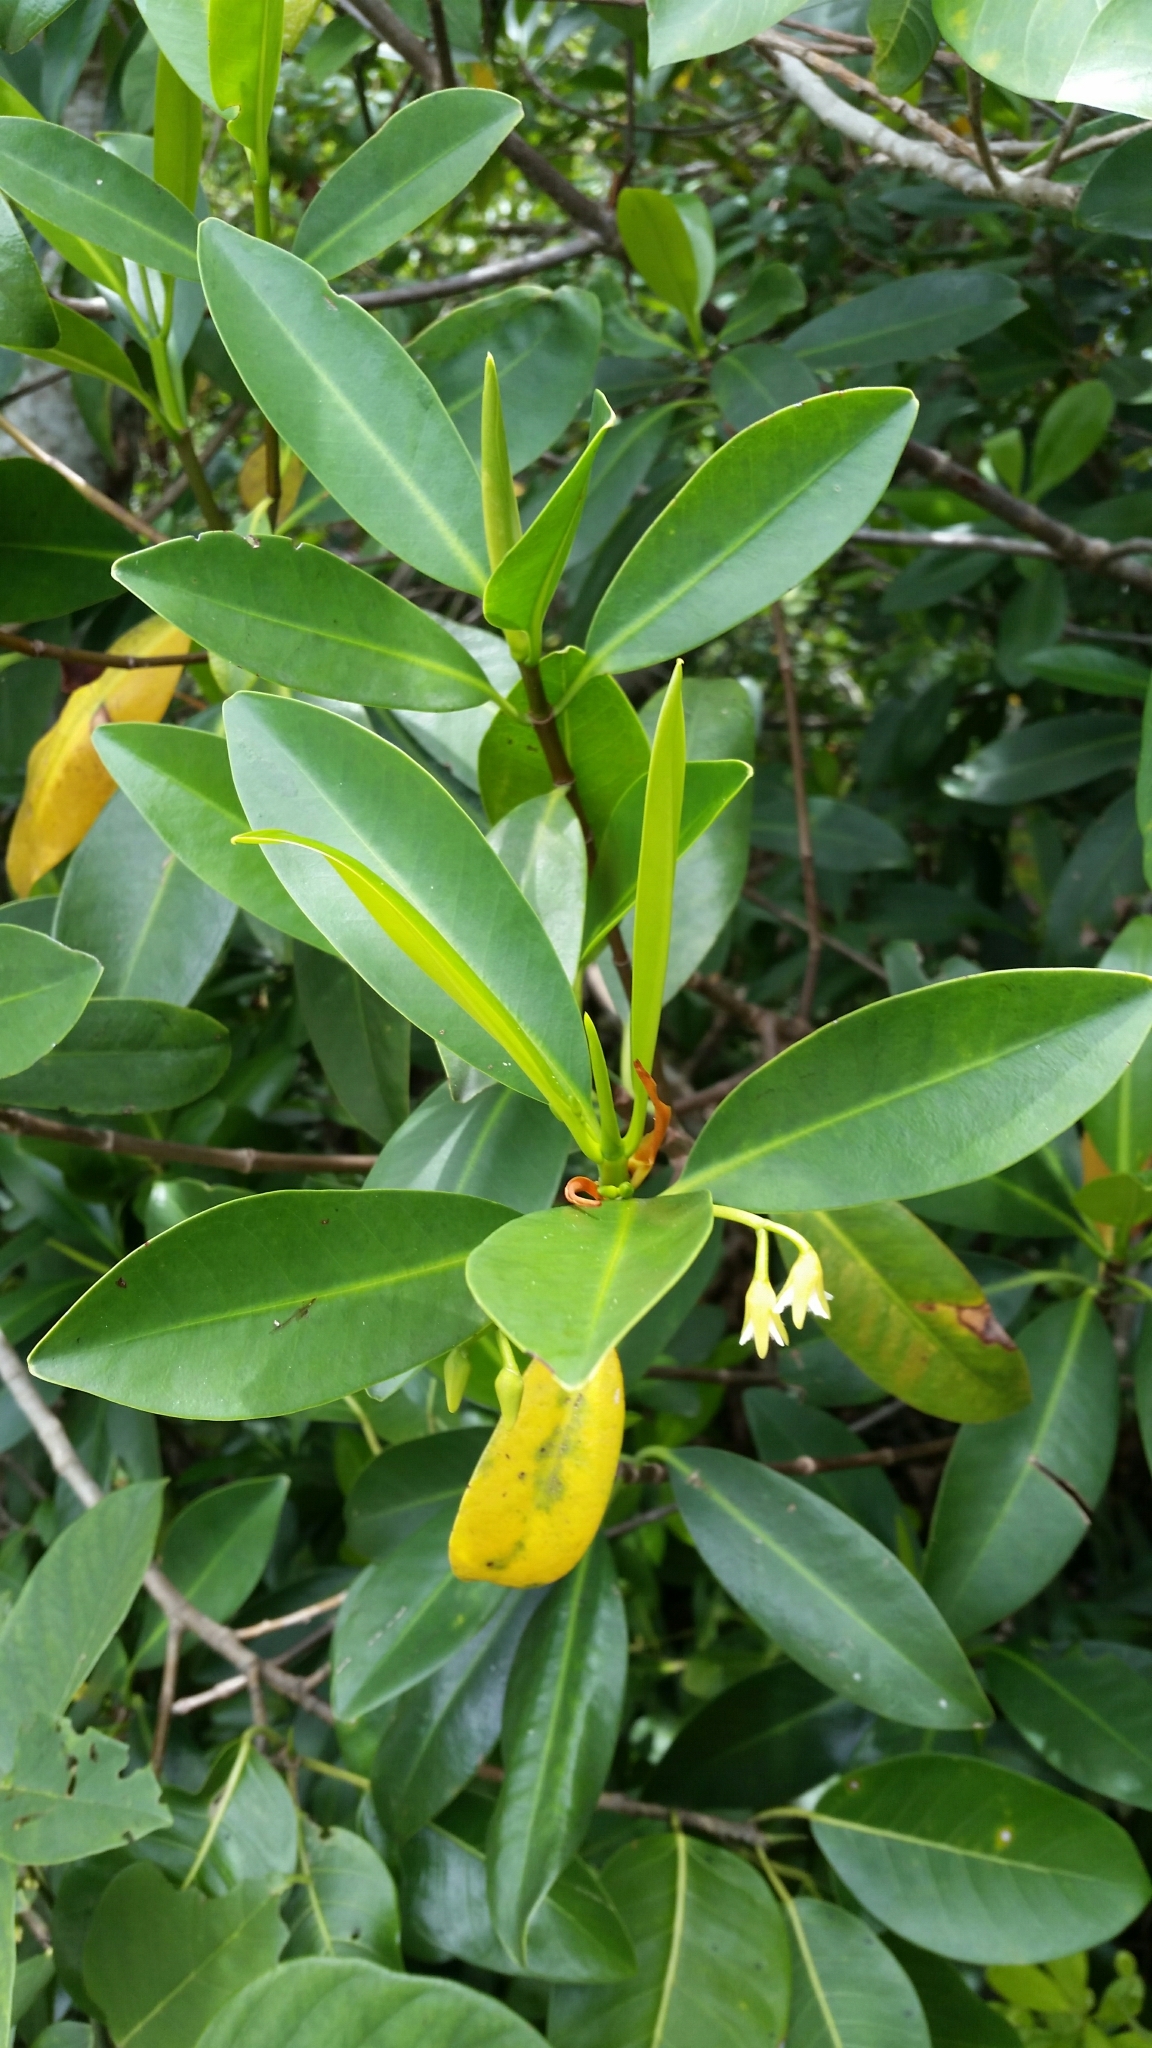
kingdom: Plantae
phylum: Tracheophyta
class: Magnoliopsida
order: Malpighiales
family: Rhizophoraceae
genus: Rhizophora
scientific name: Rhizophora mangle
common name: Red mangrove
